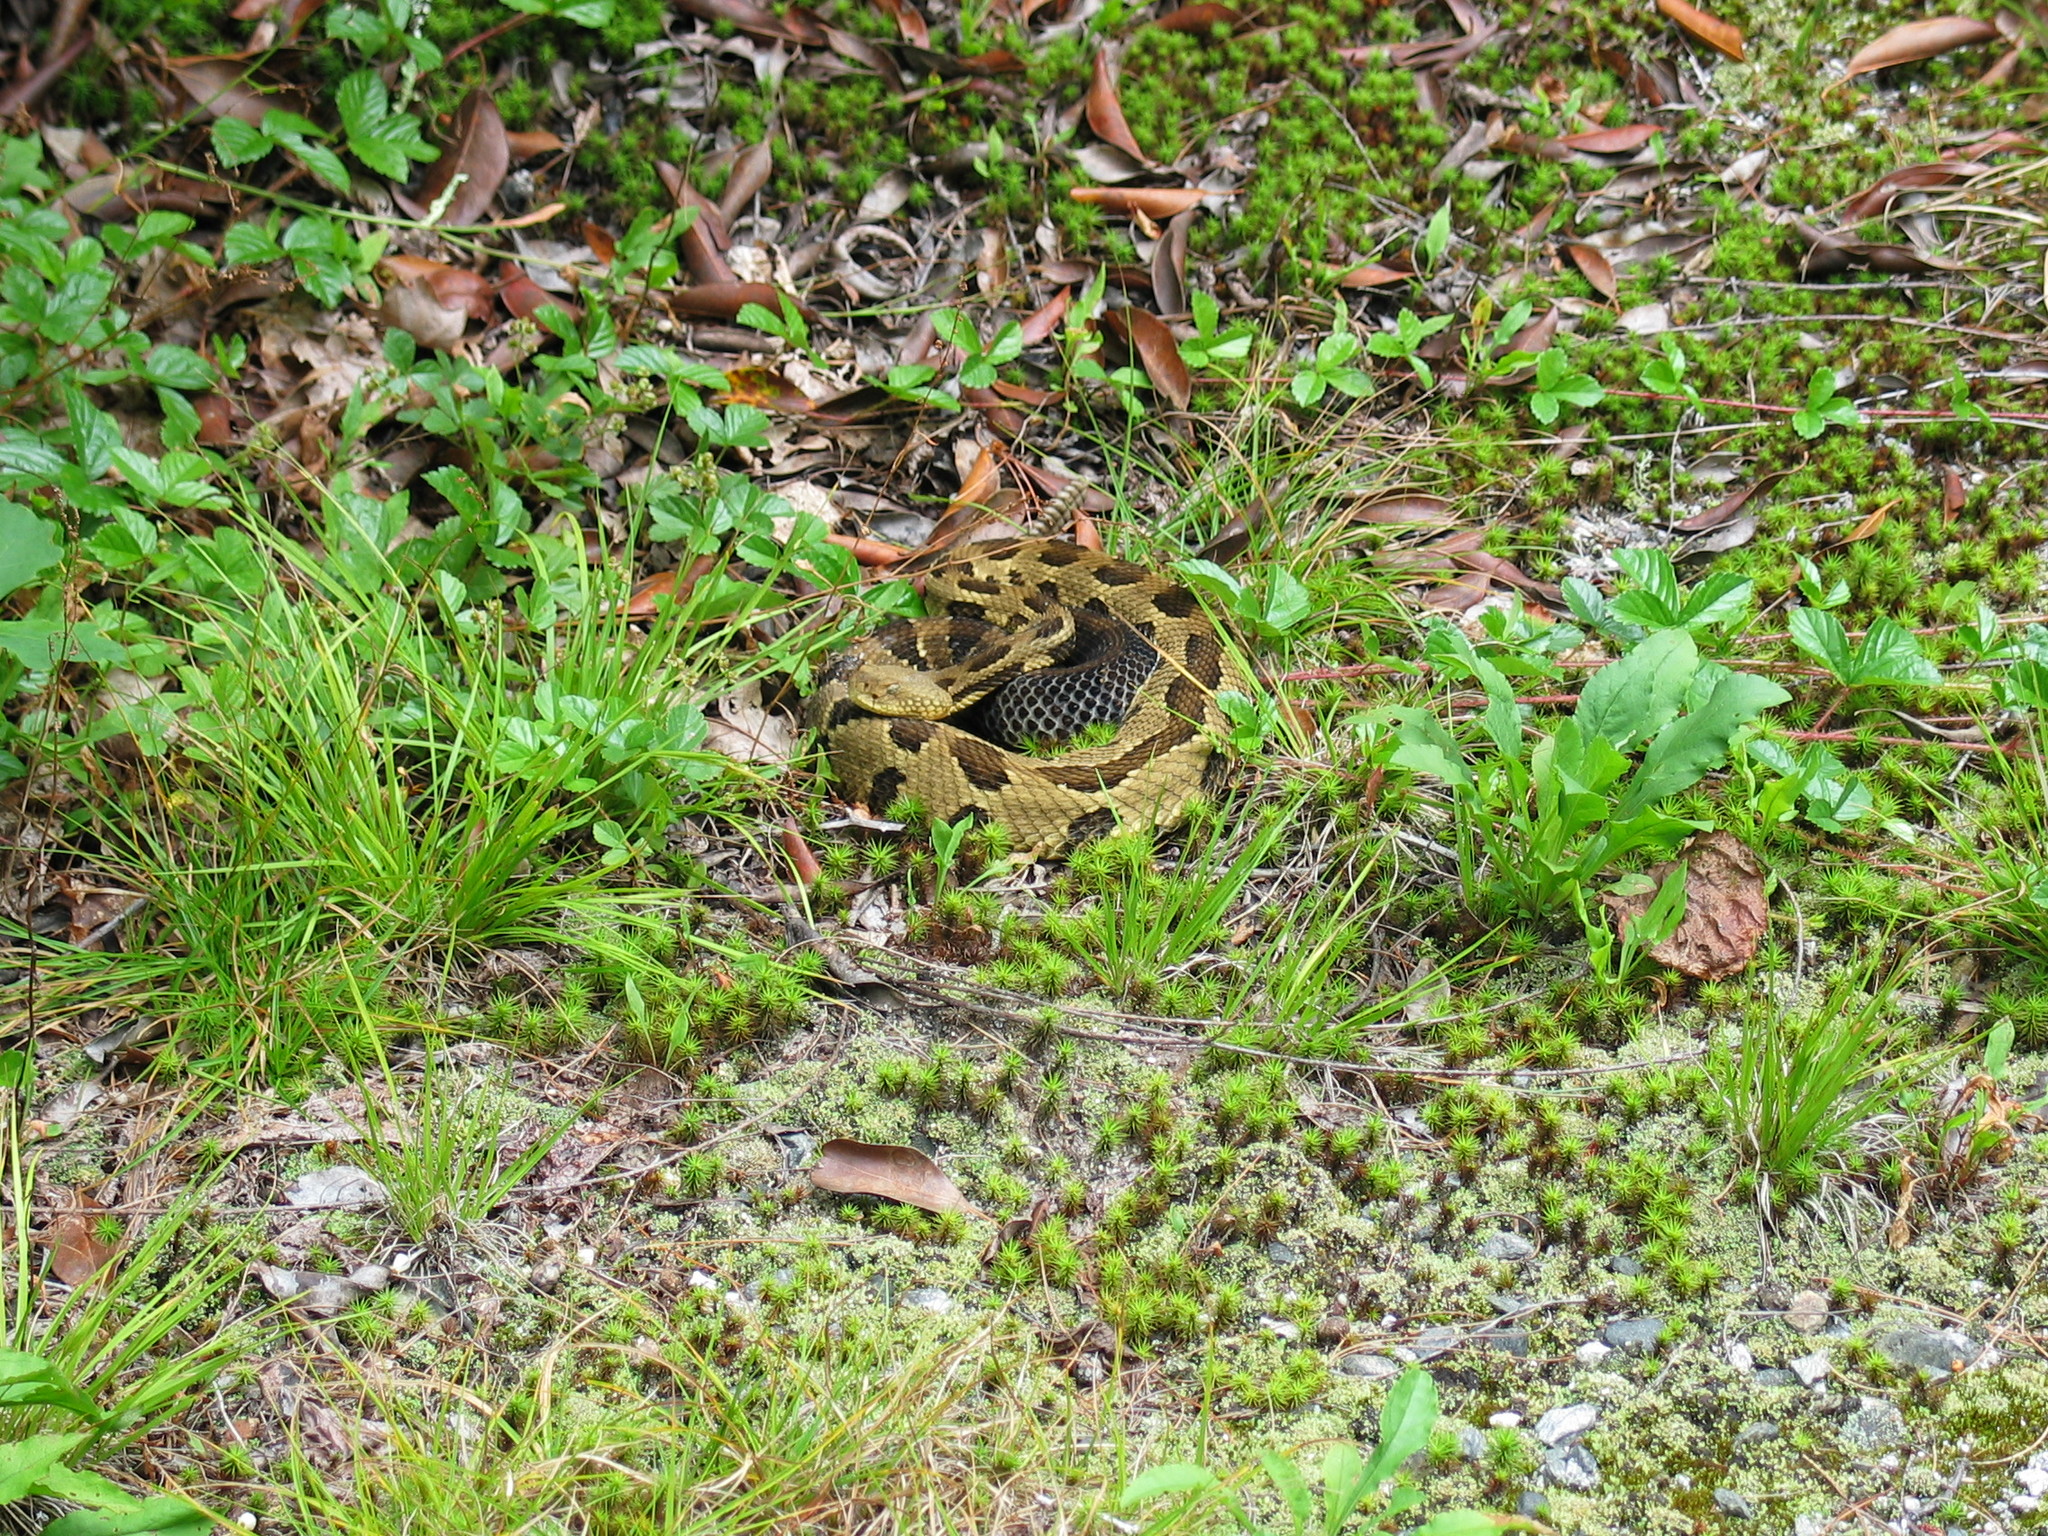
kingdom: Animalia
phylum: Chordata
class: Squamata
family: Viperidae
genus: Crotalus
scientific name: Crotalus horridus
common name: Timber rattlesnake
